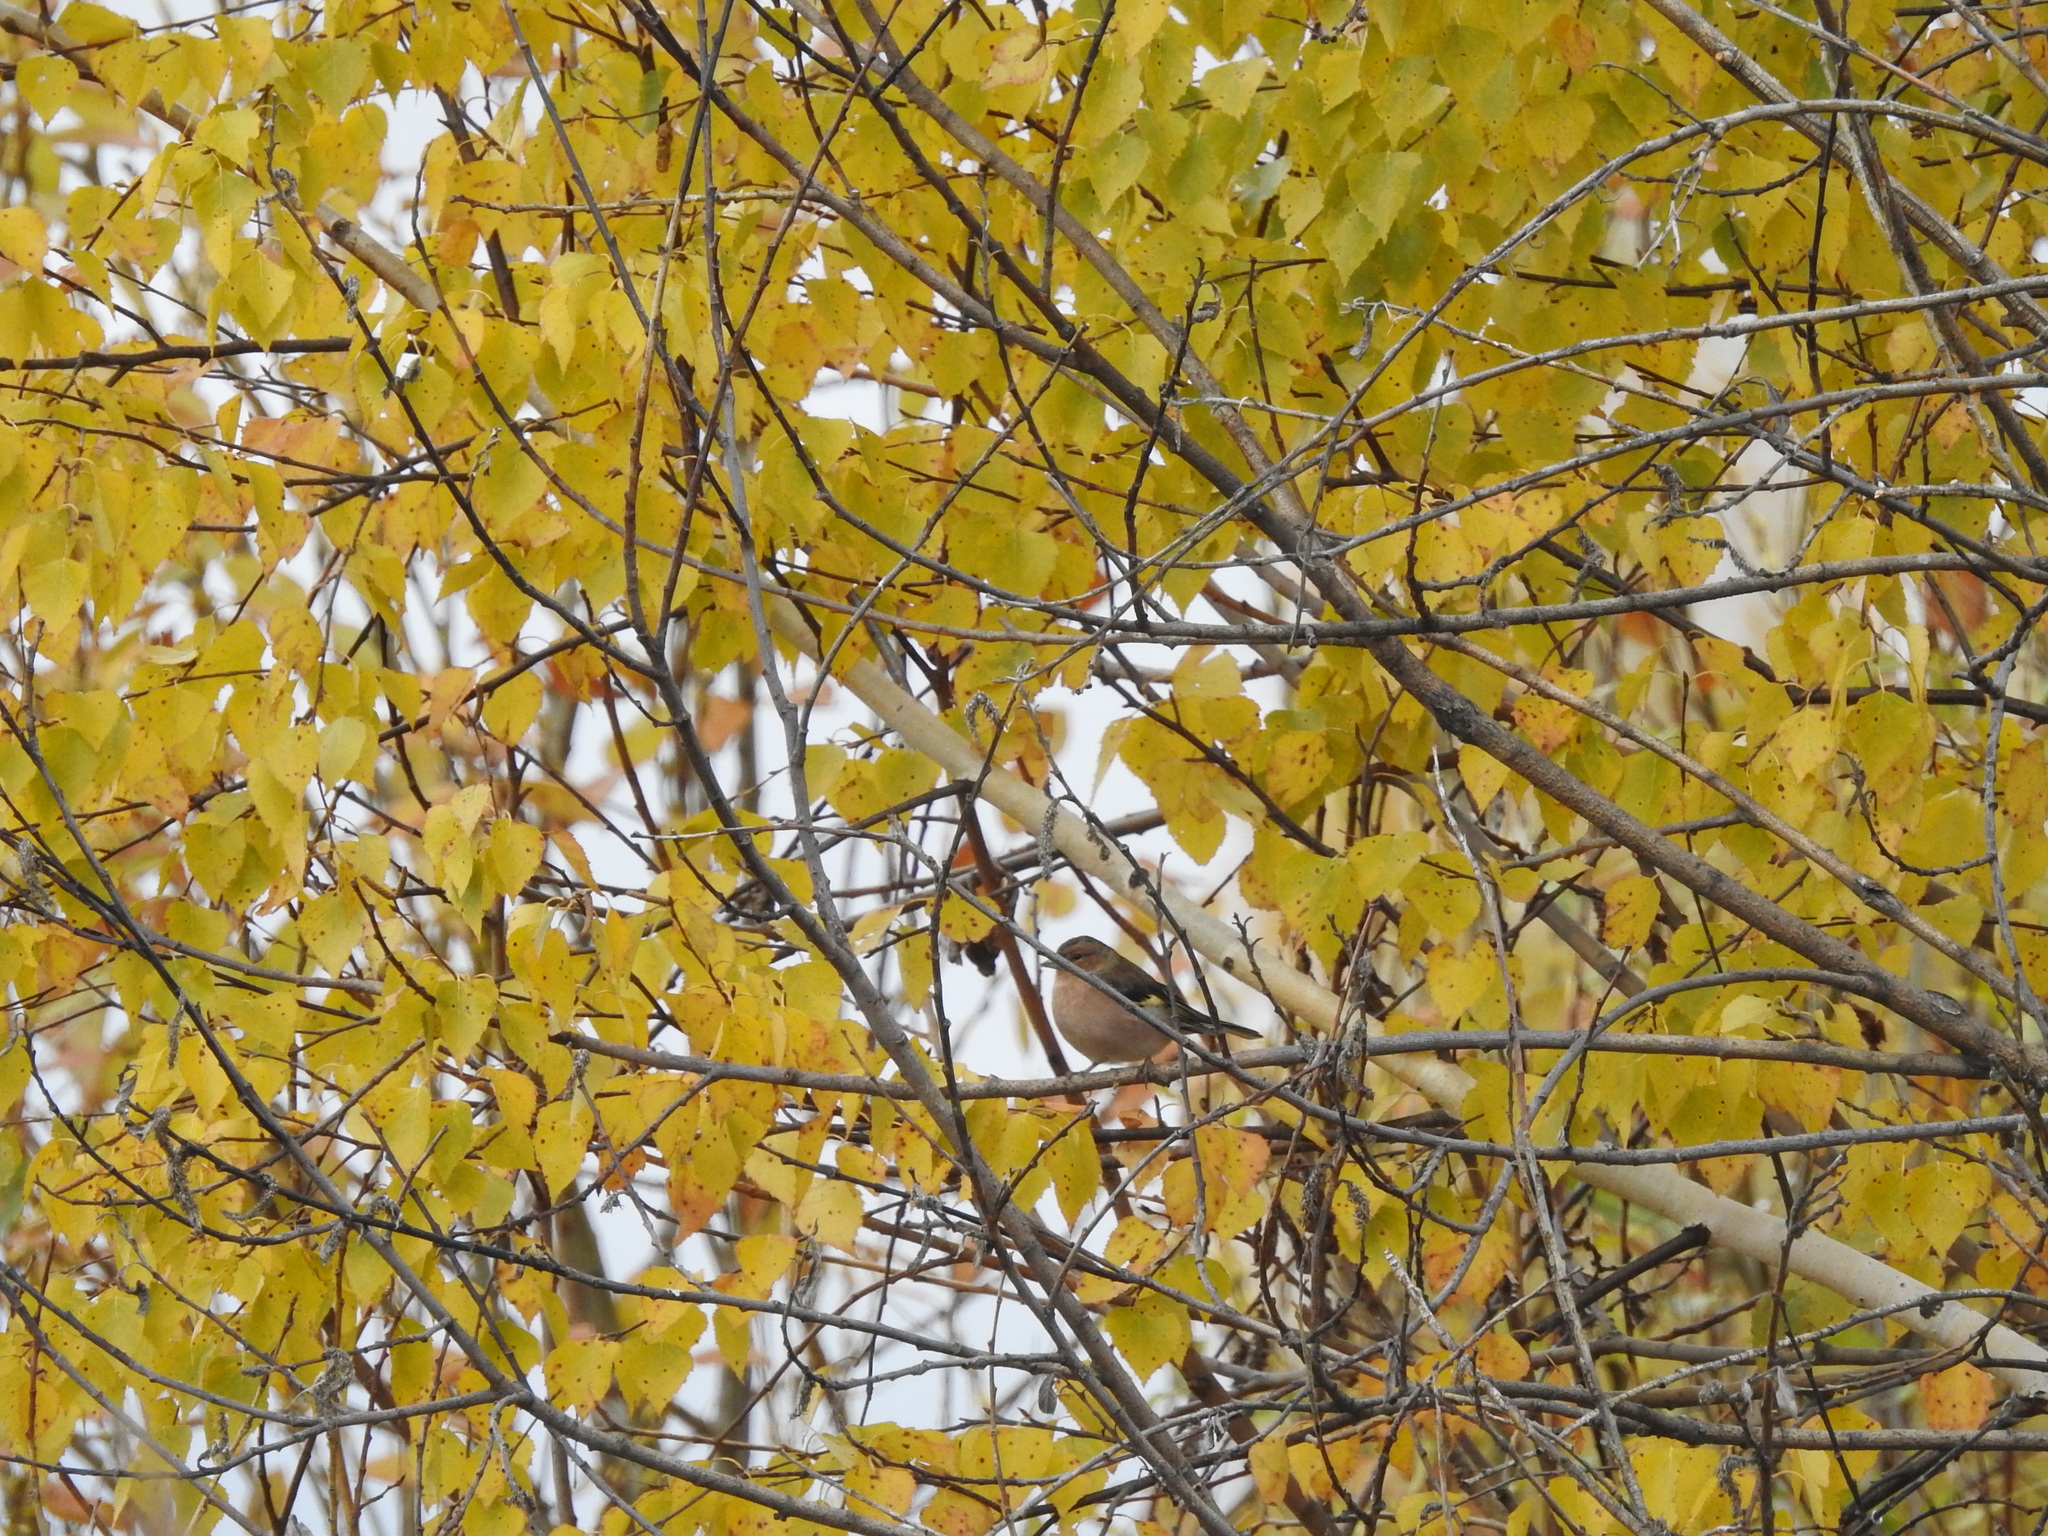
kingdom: Animalia
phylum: Chordata
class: Aves
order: Passeriformes
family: Fringillidae
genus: Fringilla
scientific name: Fringilla coelebs
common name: Common chaffinch
